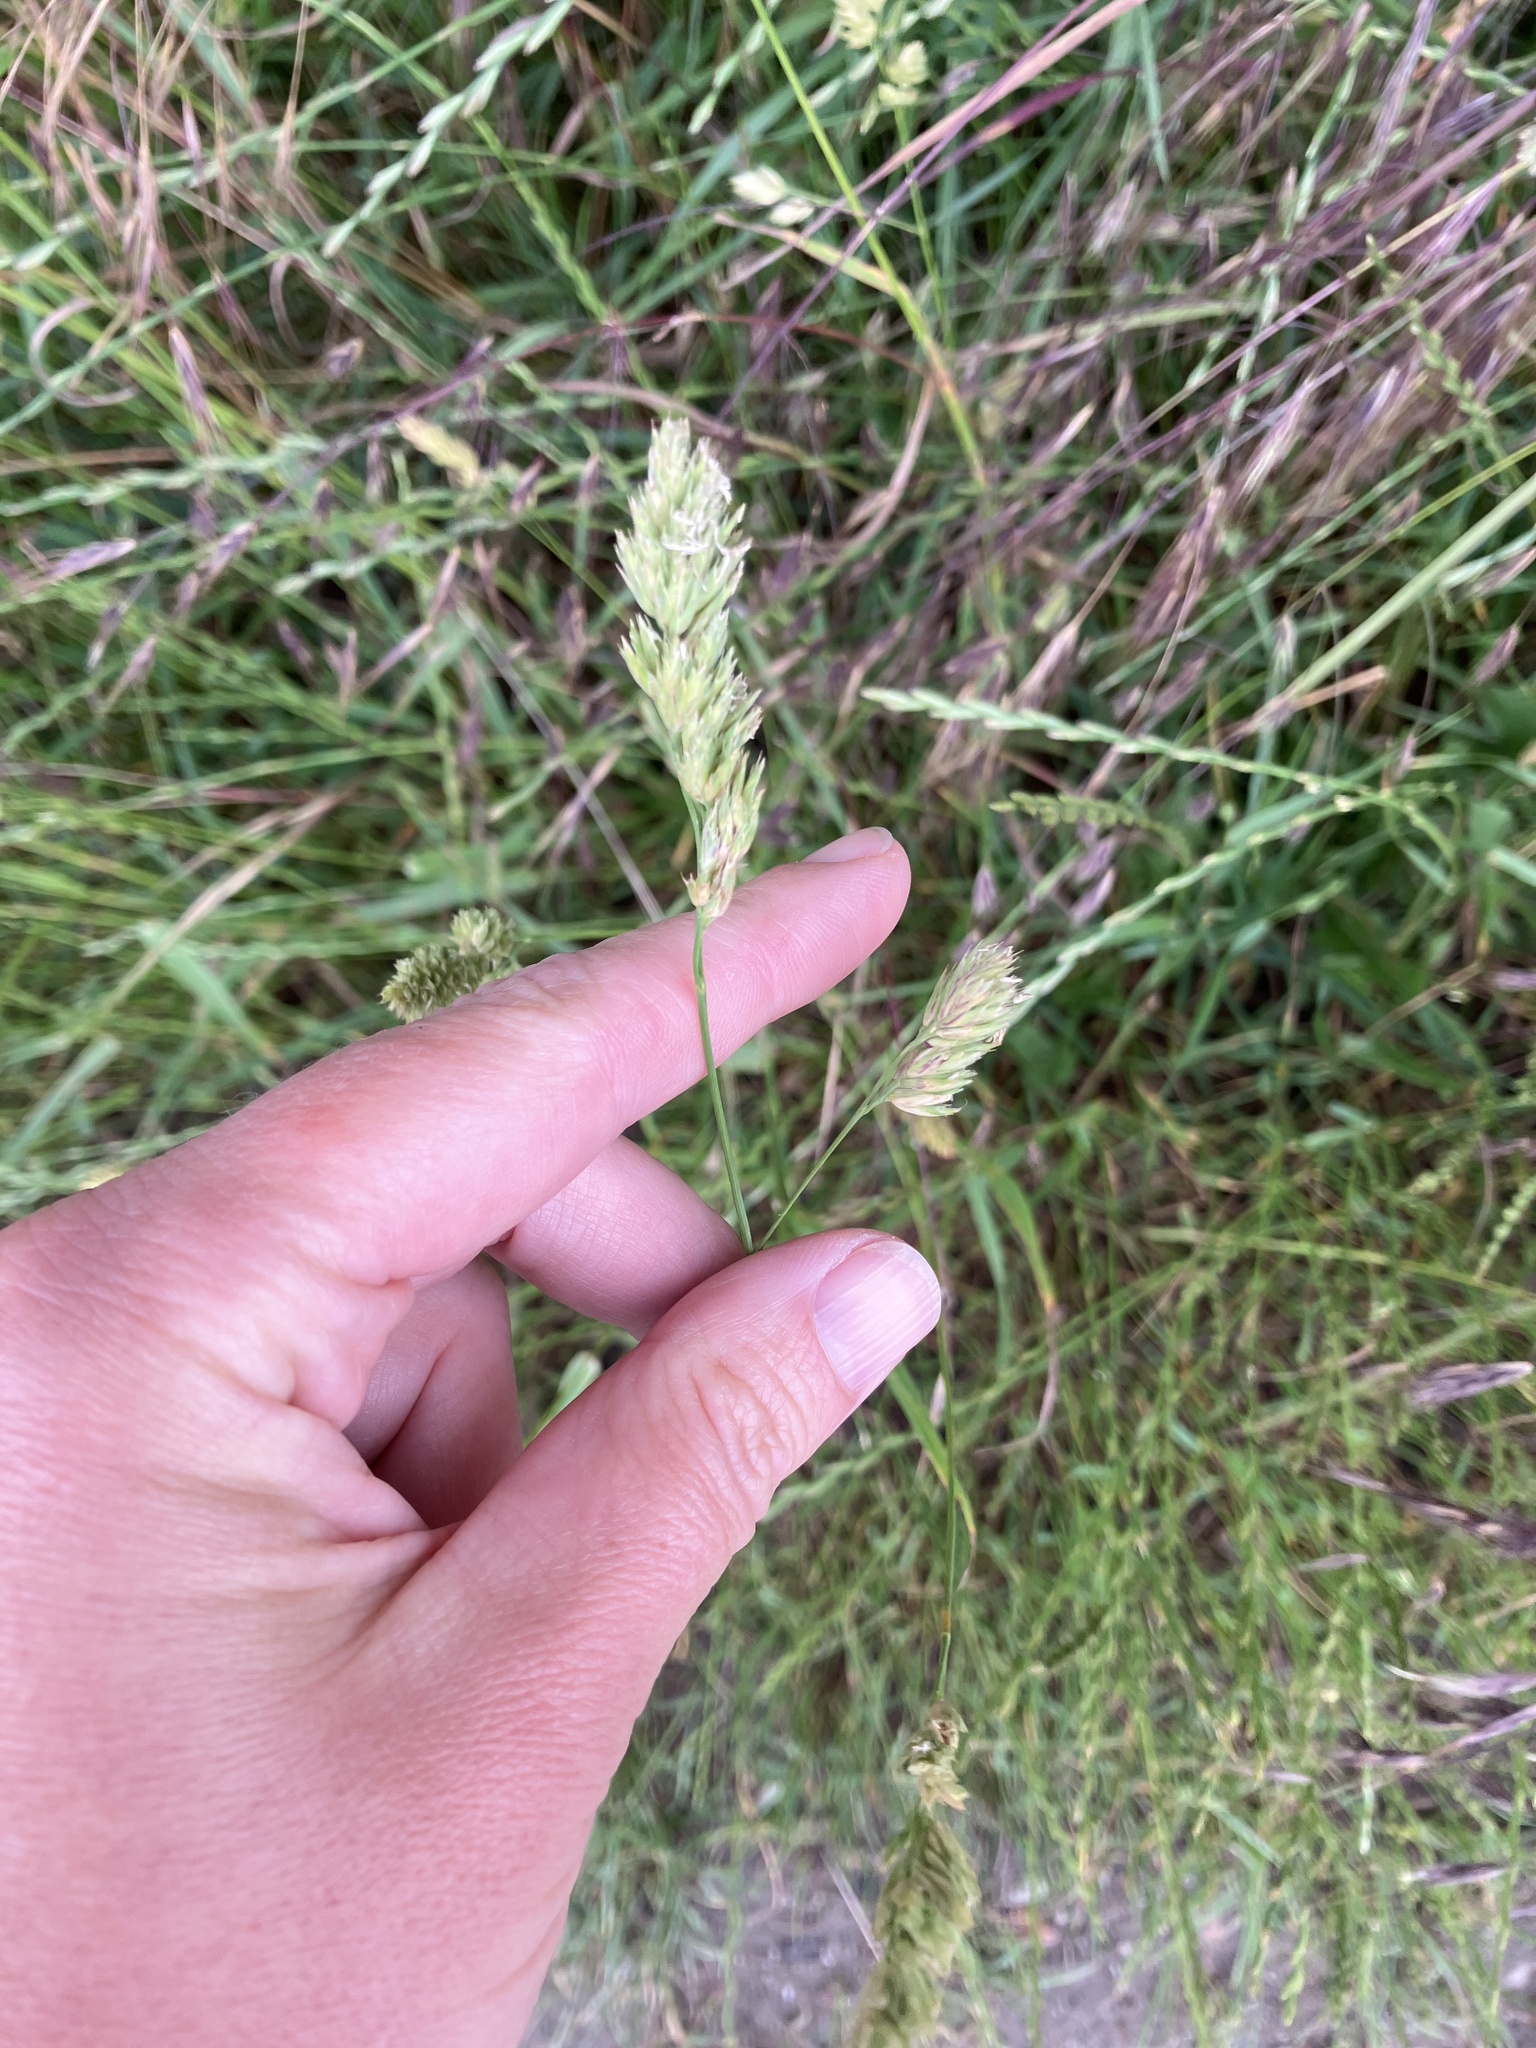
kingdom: Plantae
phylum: Tracheophyta
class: Liliopsida
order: Poales
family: Poaceae
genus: Dactylis
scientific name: Dactylis glomerata
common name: Orchardgrass
